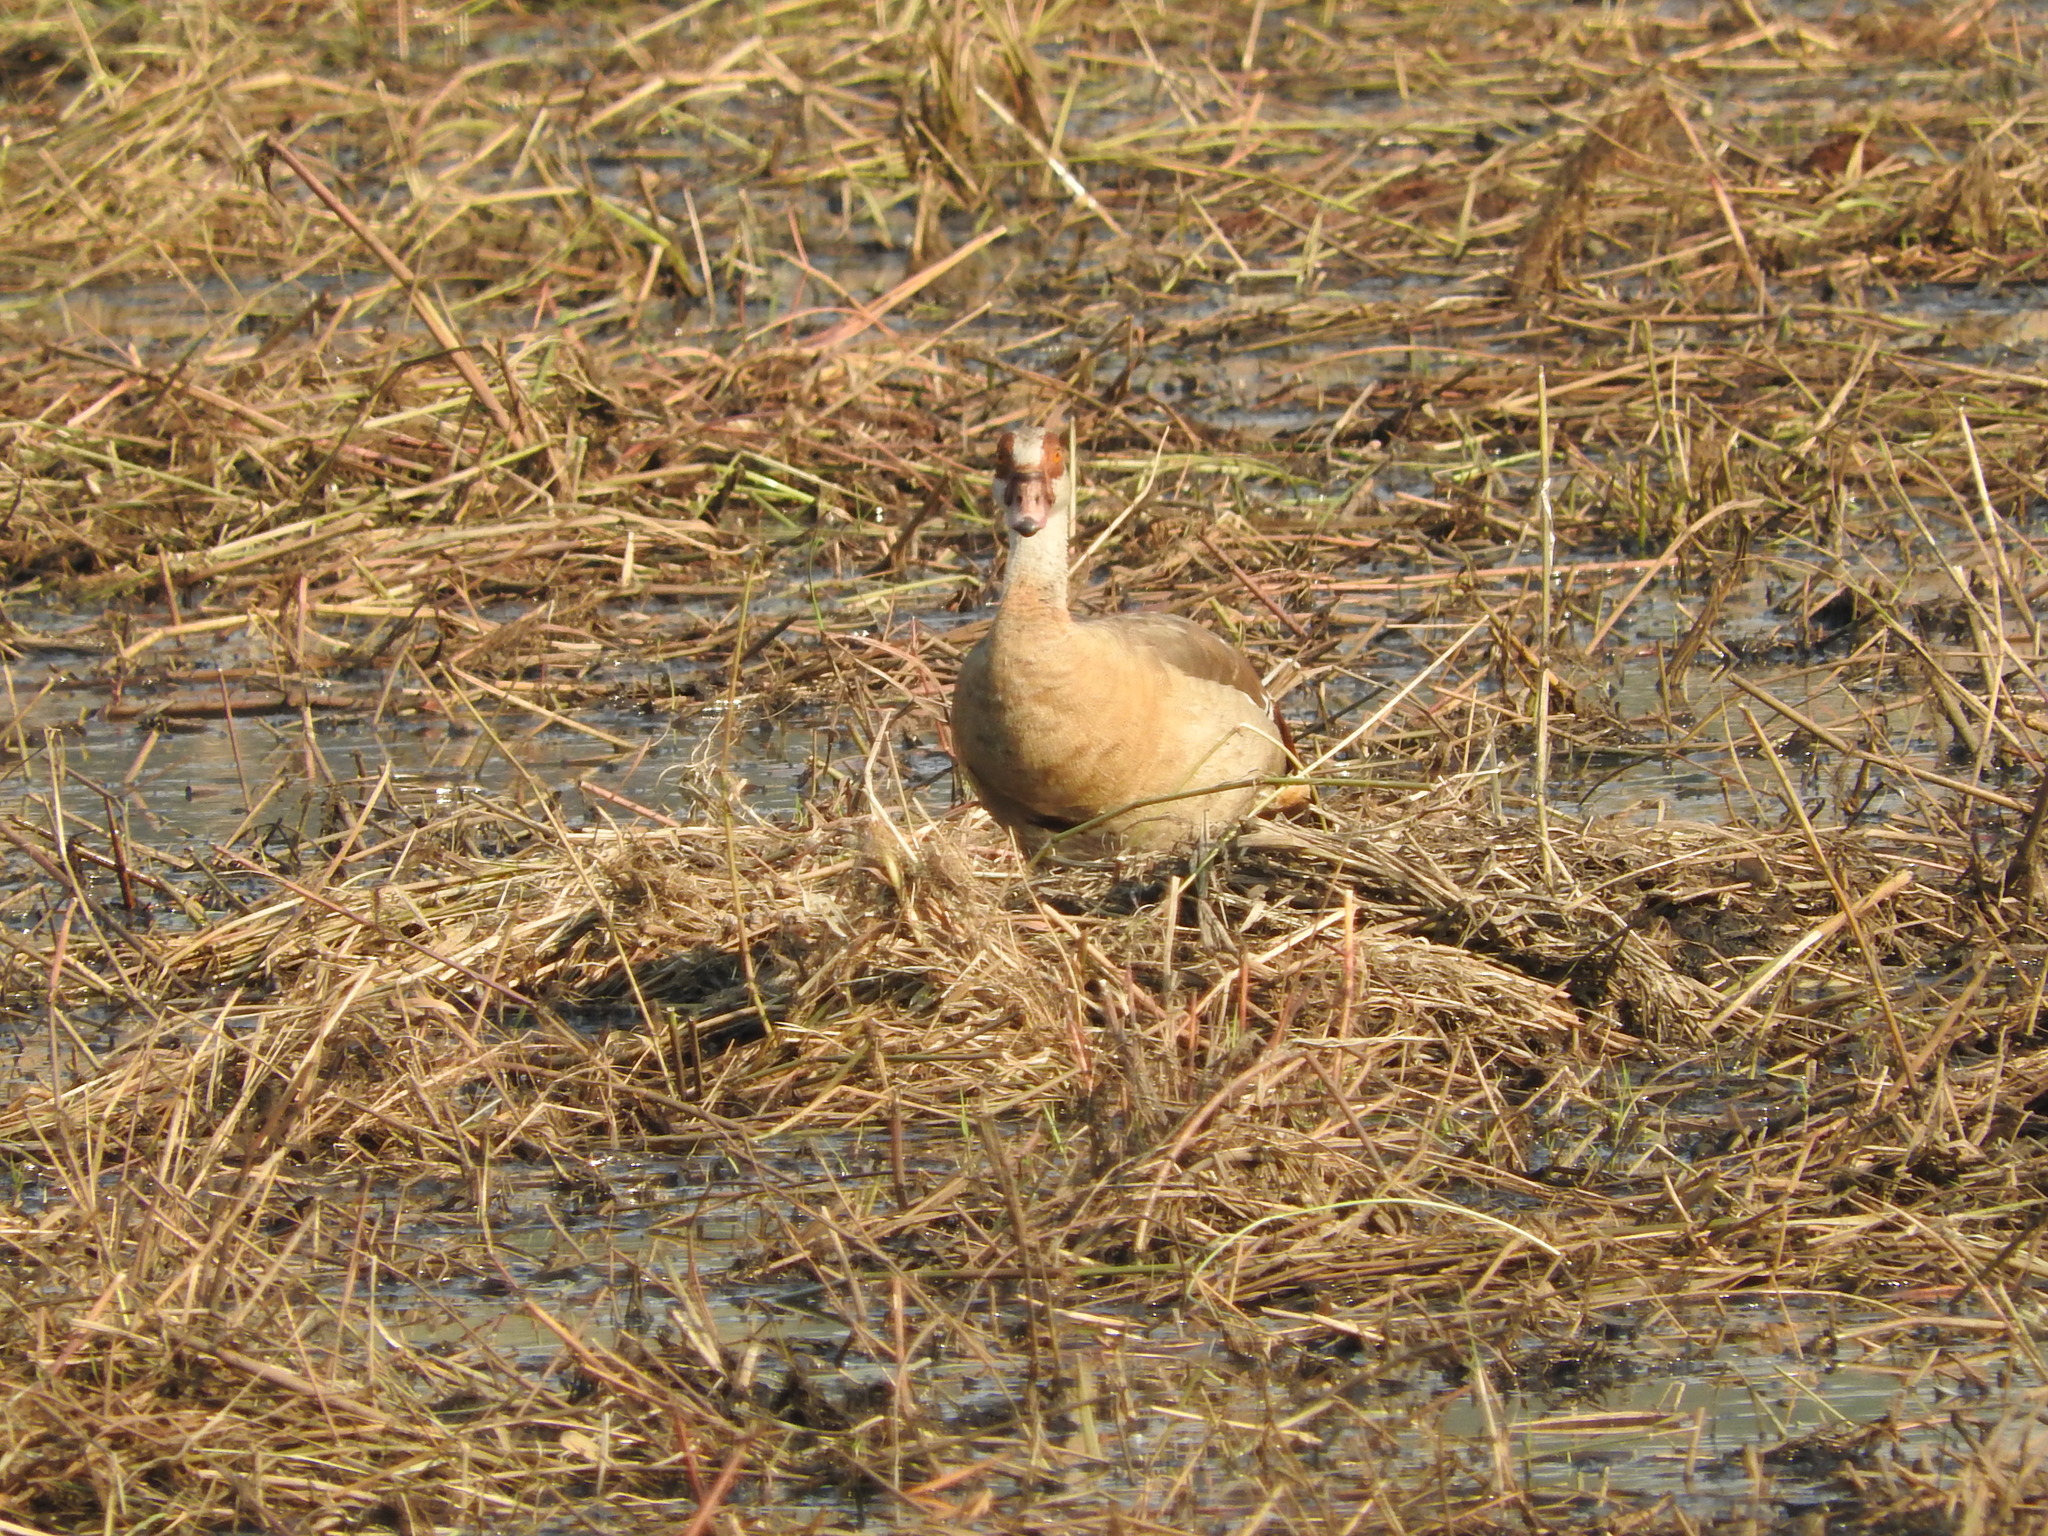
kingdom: Animalia
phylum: Chordata
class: Aves
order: Anseriformes
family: Anatidae
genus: Alopochen
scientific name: Alopochen aegyptiaca
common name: Egyptian goose
